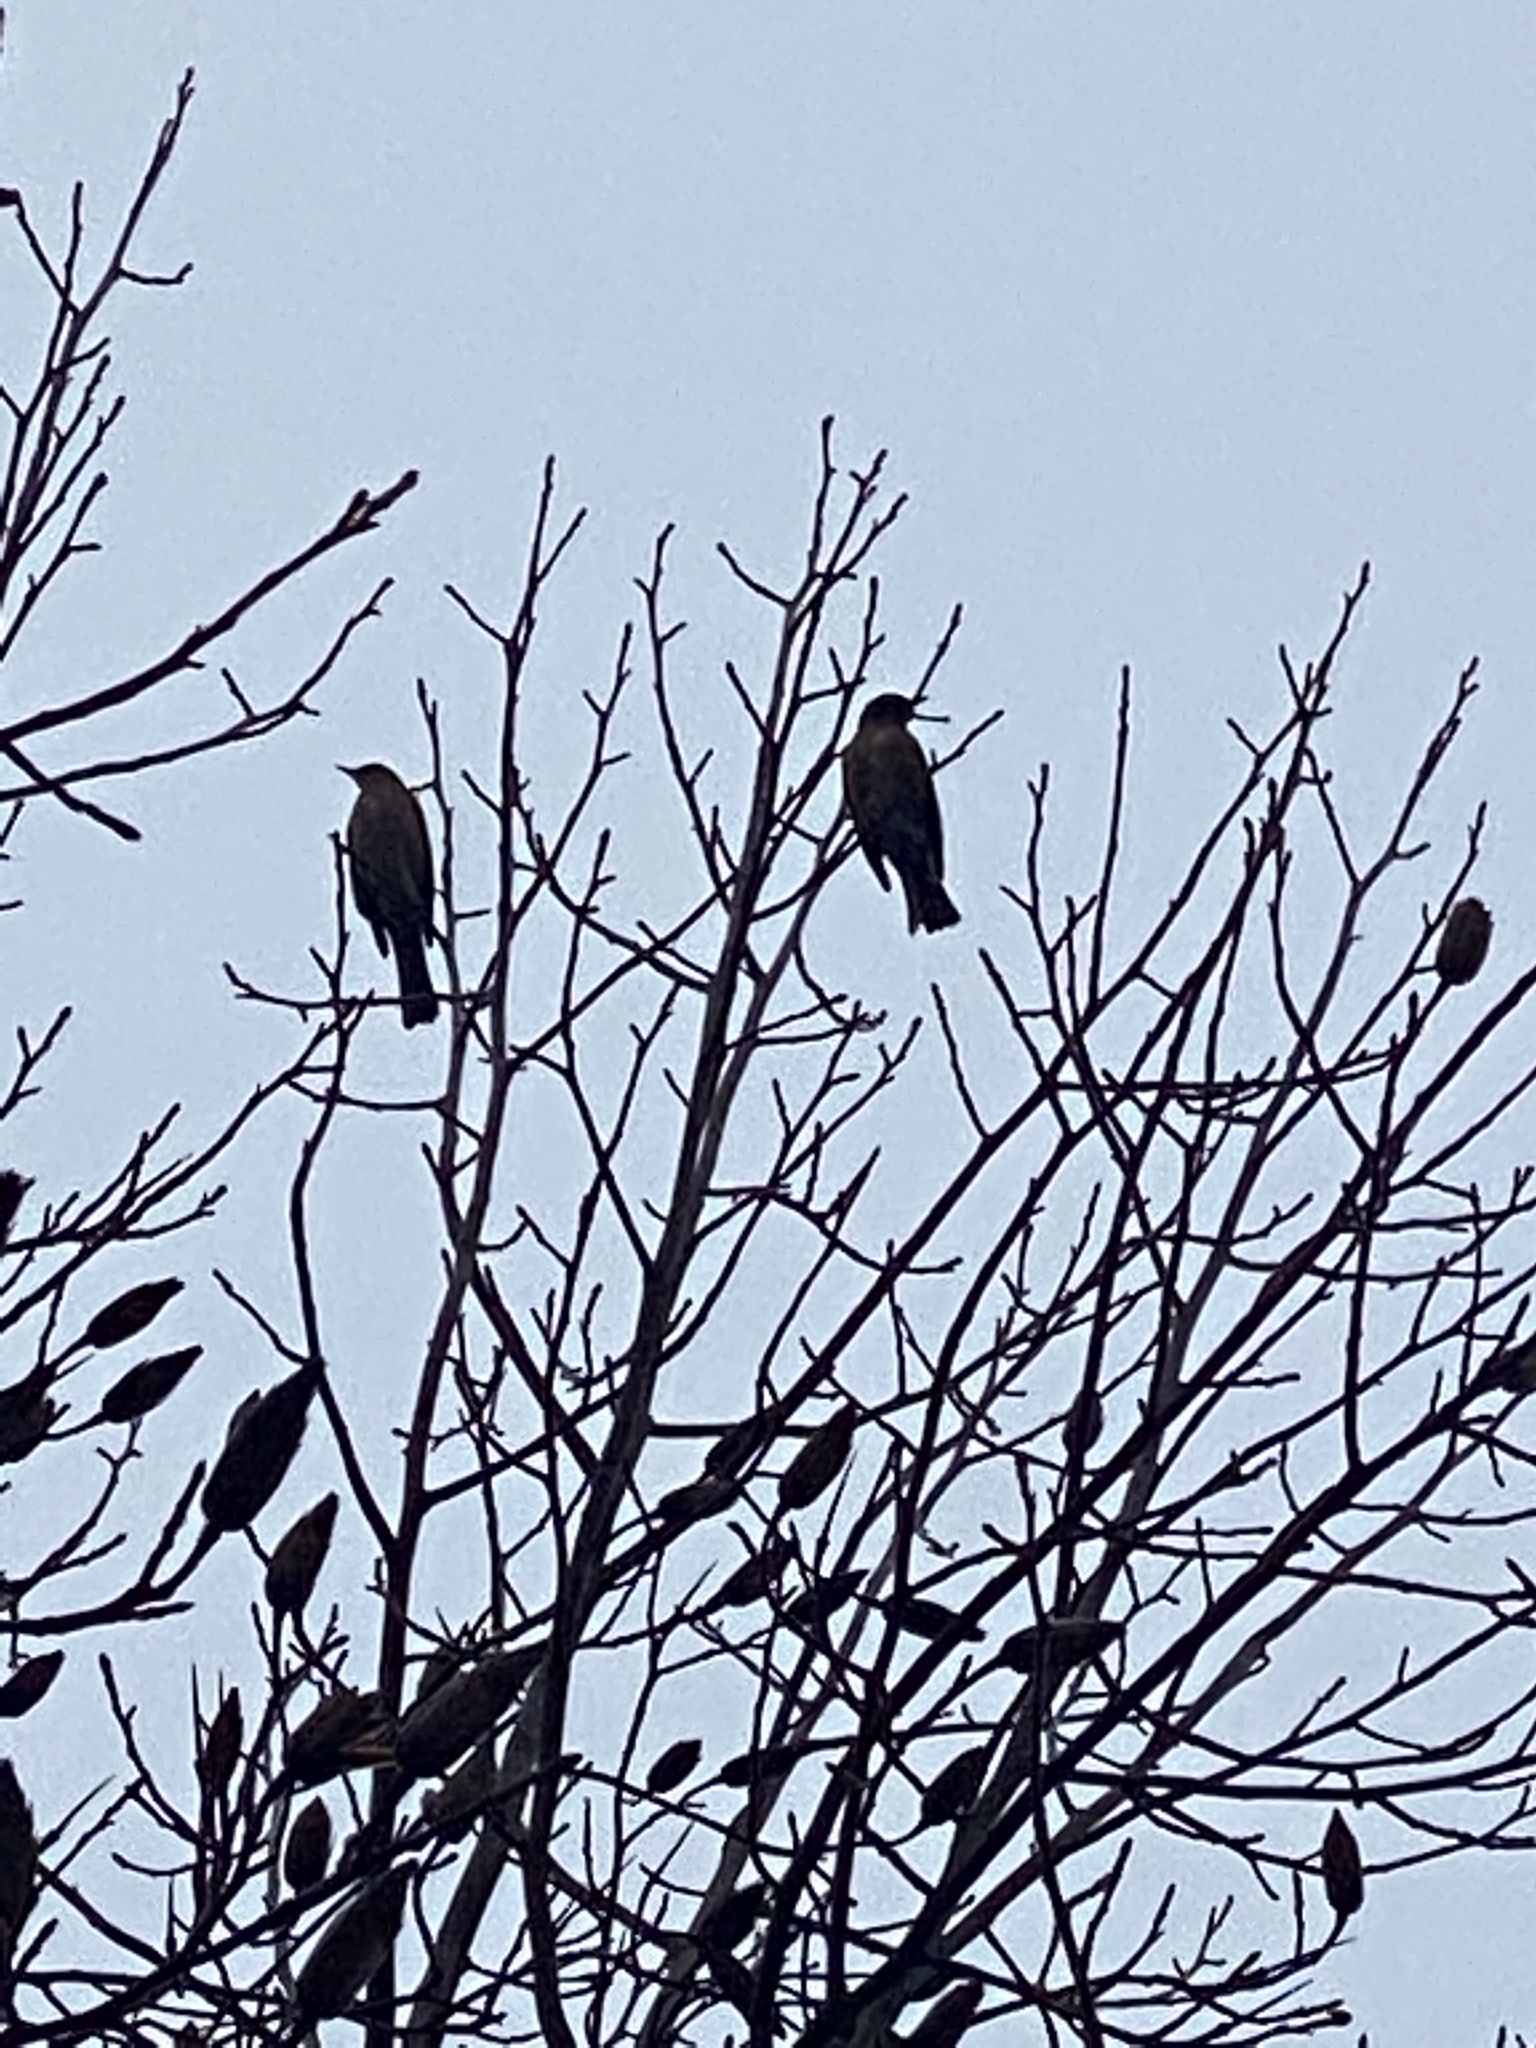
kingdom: Animalia
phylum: Chordata
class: Aves
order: Passeriformes
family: Turdidae
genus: Turdus
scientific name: Turdus migratorius
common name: American robin
